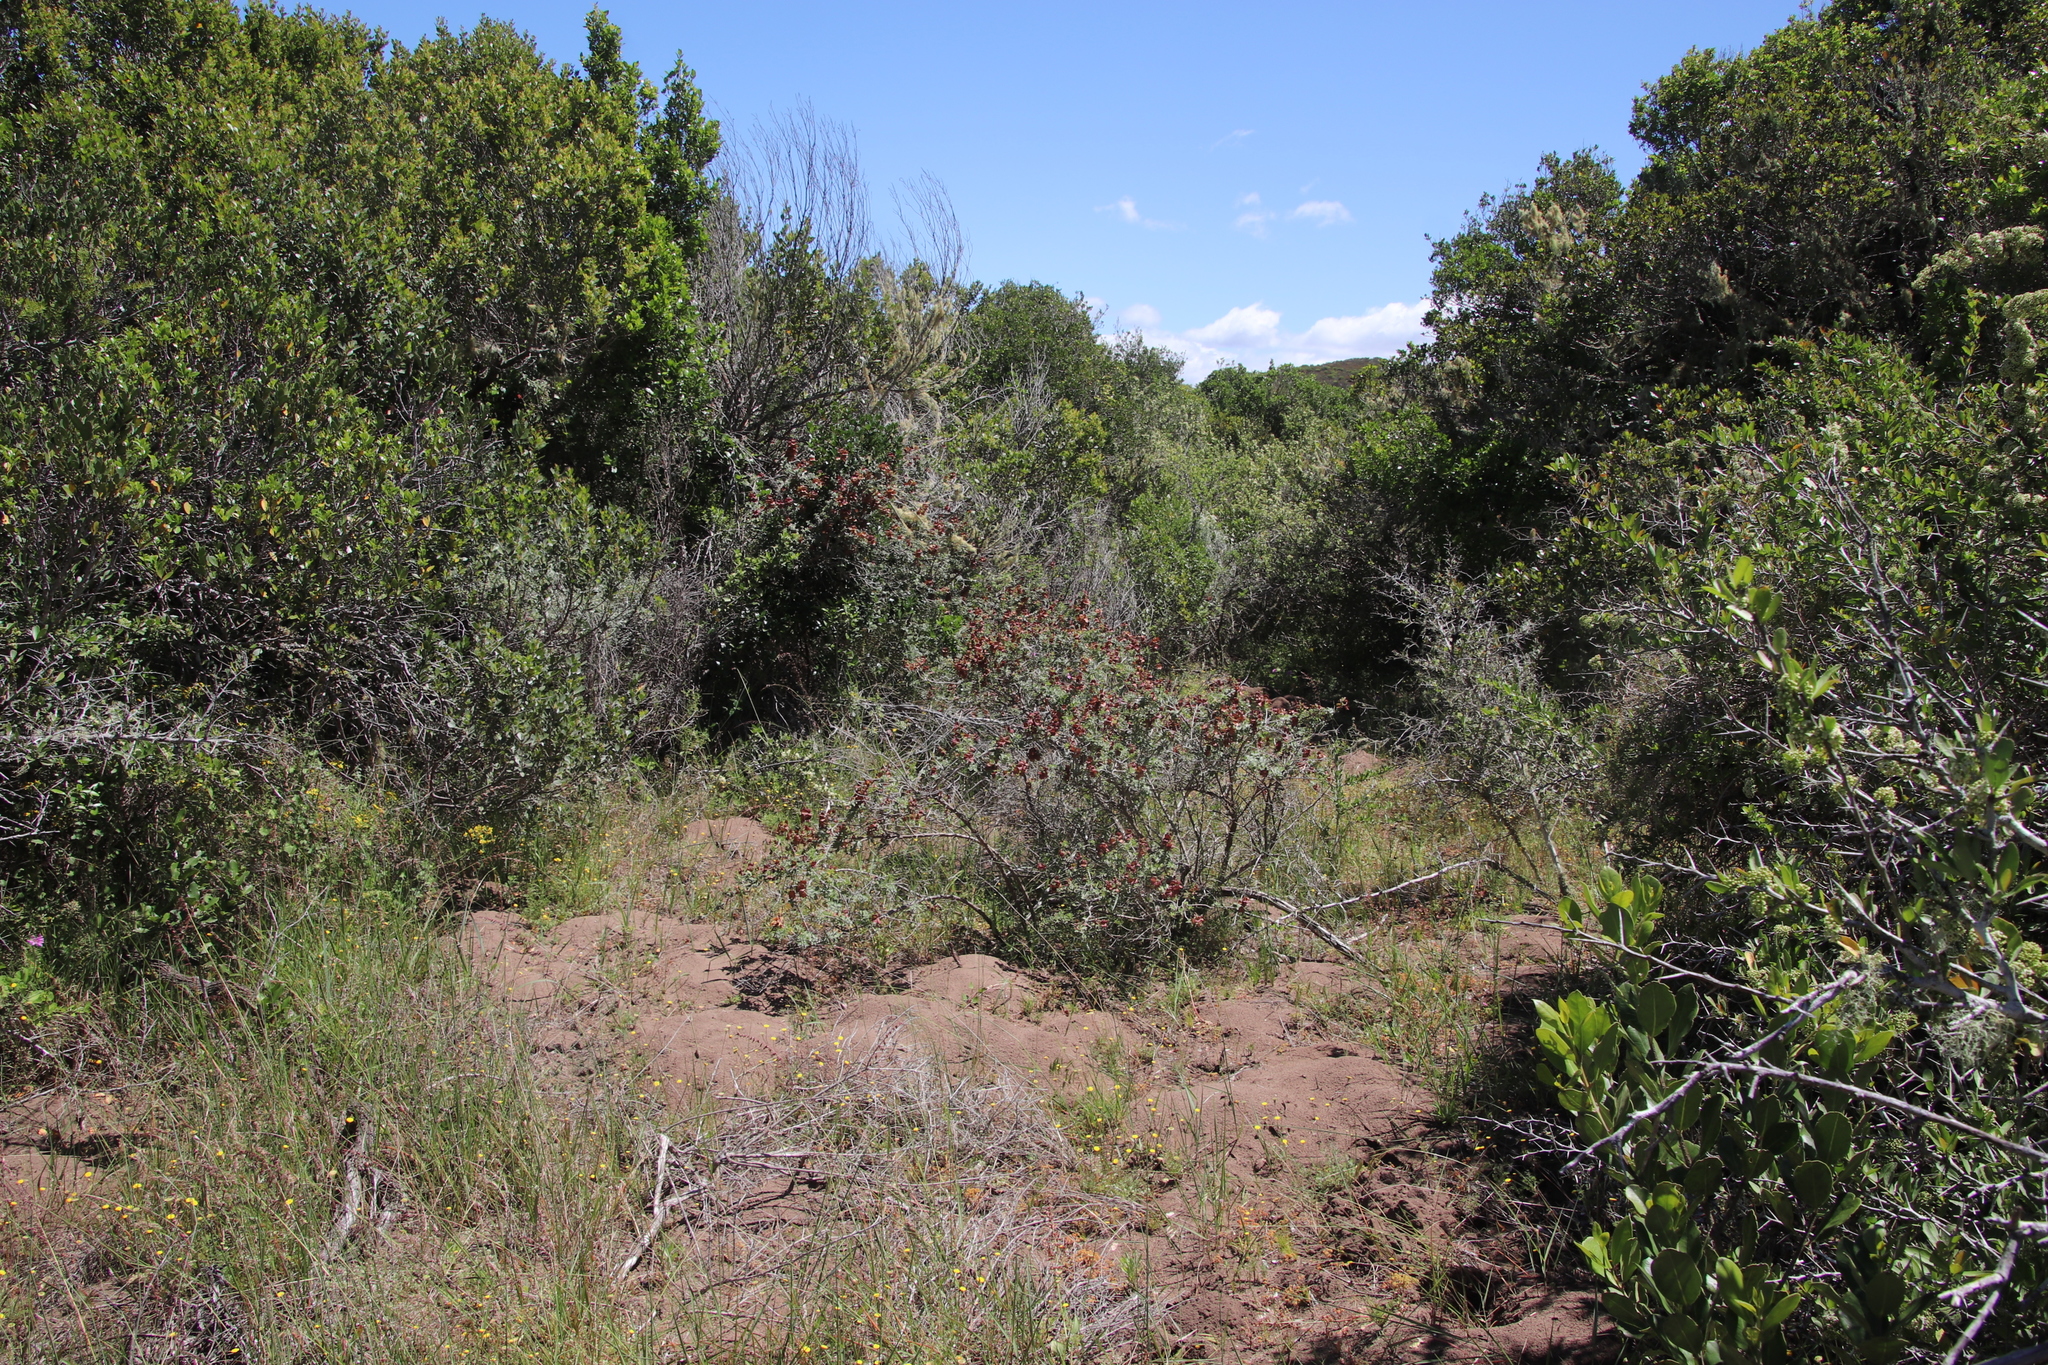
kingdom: Plantae
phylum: Tracheophyta
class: Magnoliopsida
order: Lamiales
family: Lamiaceae
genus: Salvia
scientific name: Salvia aurea
